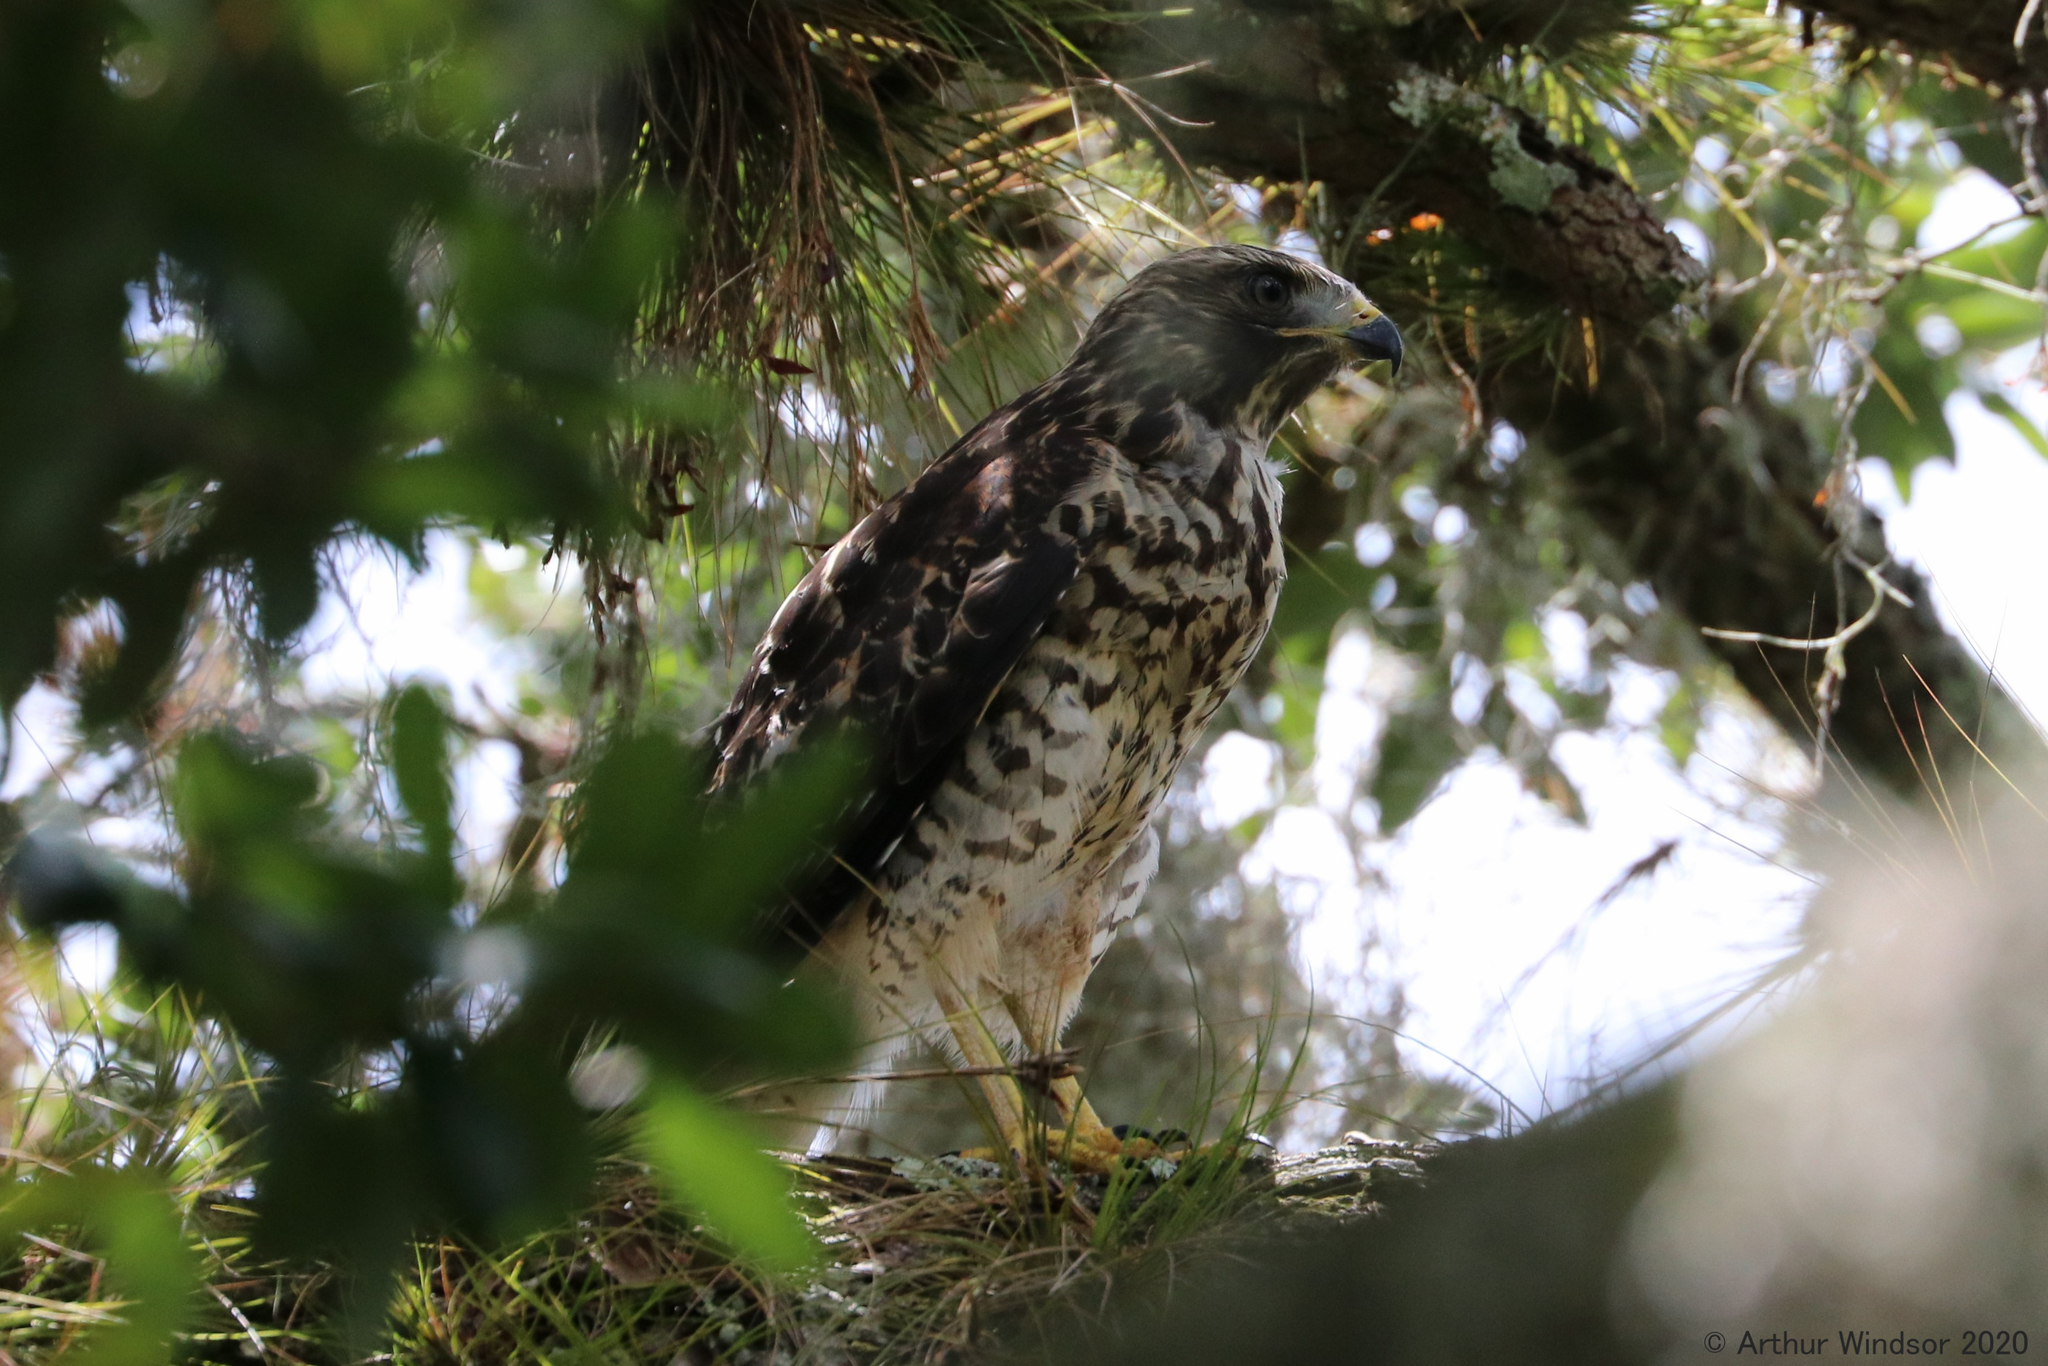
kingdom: Animalia
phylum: Chordata
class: Aves
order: Accipitriformes
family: Accipitridae
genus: Buteo
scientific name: Buteo lineatus
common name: Red-shouldered hawk
